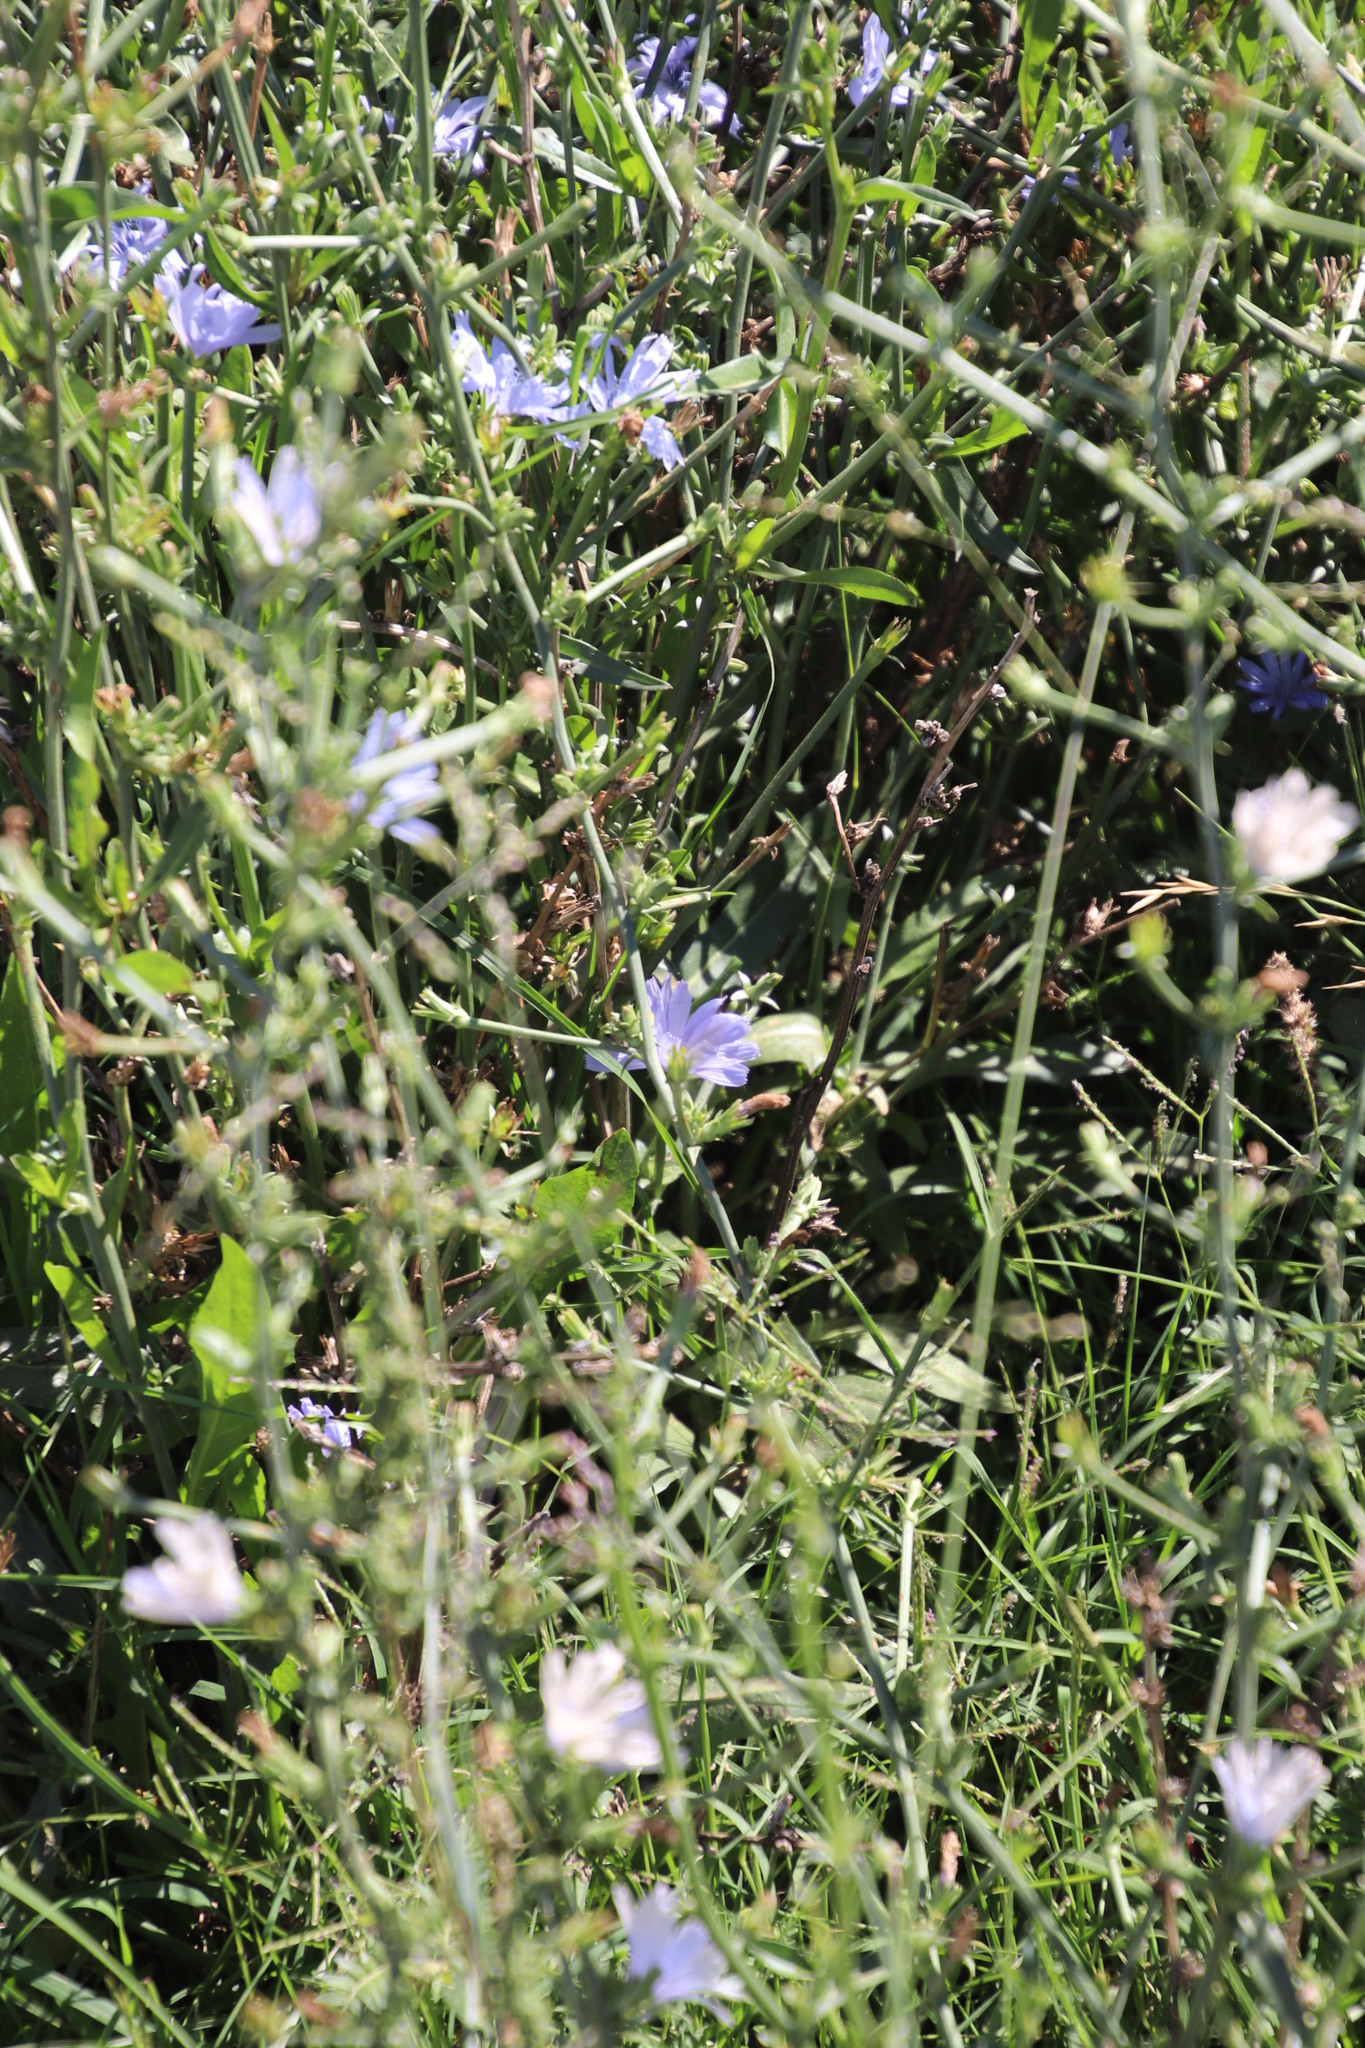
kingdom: Plantae
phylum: Tracheophyta
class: Magnoliopsida
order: Asterales
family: Asteraceae
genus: Cichorium
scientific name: Cichorium intybus
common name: Chicory
